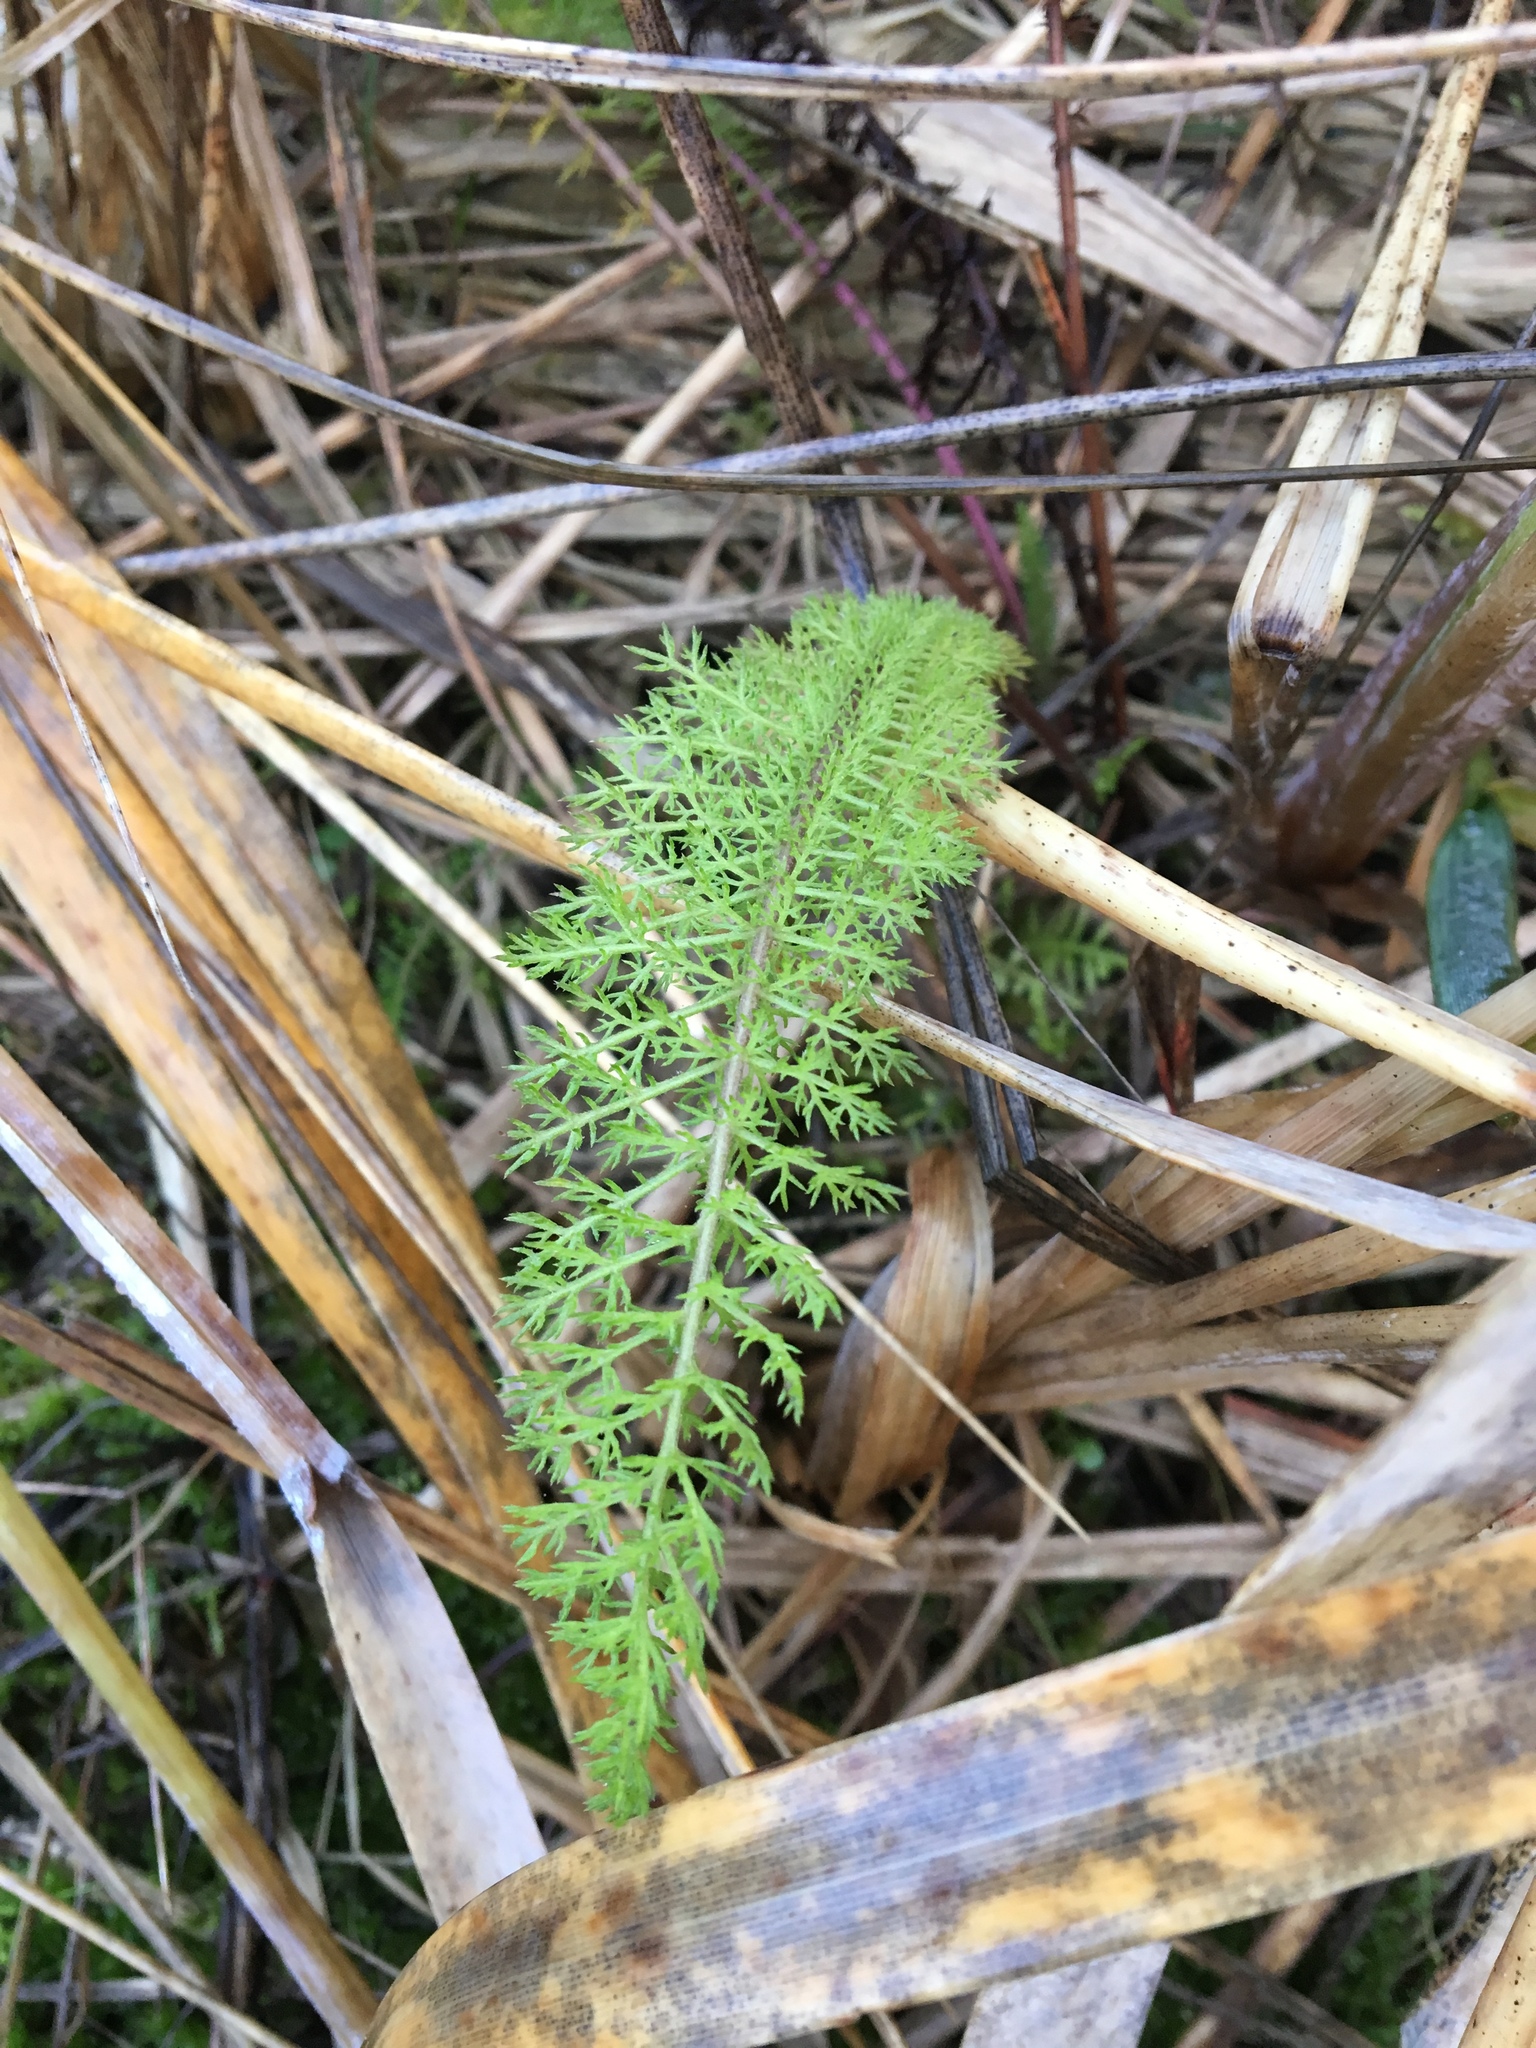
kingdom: Plantae
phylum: Tracheophyta
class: Magnoliopsida
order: Asterales
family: Asteraceae
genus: Achillea
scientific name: Achillea millefolium
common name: Yarrow
